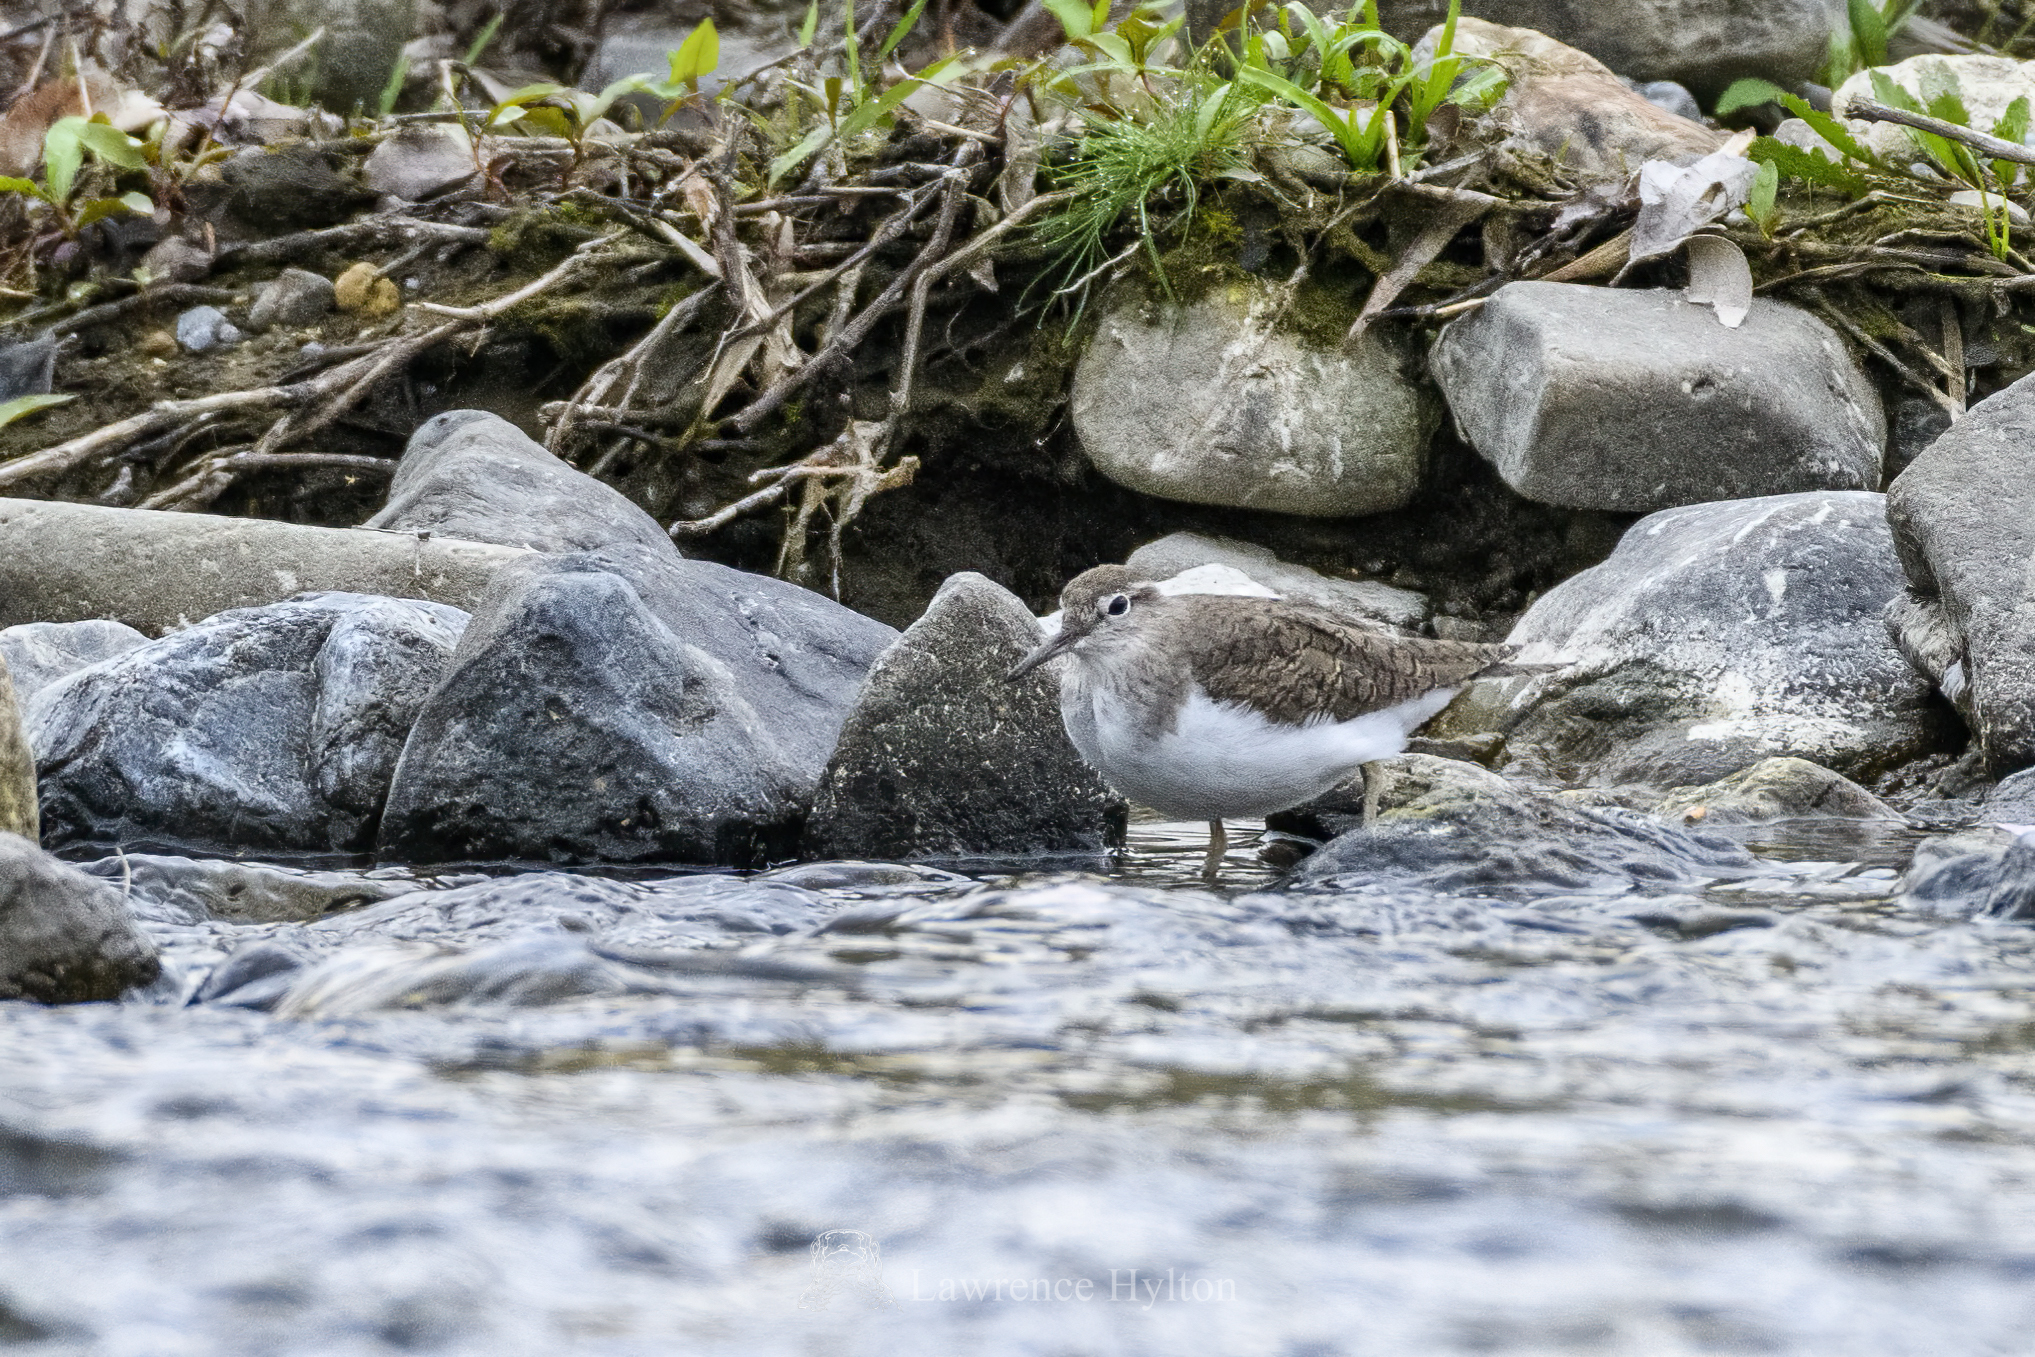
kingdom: Animalia
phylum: Chordata
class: Aves
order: Charadriiformes
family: Scolopacidae
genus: Actitis
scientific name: Actitis hypoleucos
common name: Common sandpiper
